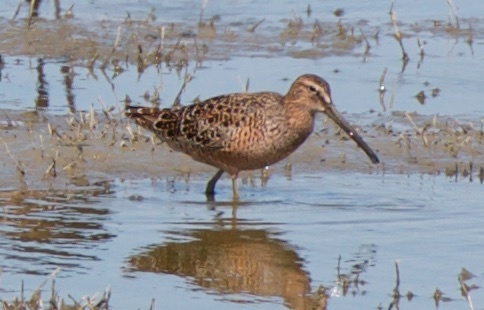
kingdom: Animalia
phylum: Chordata
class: Aves
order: Charadriiformes
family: Scolopacidae
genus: Limnodromus
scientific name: Limnodromus scolopaceus
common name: Long-billed dowitcher
